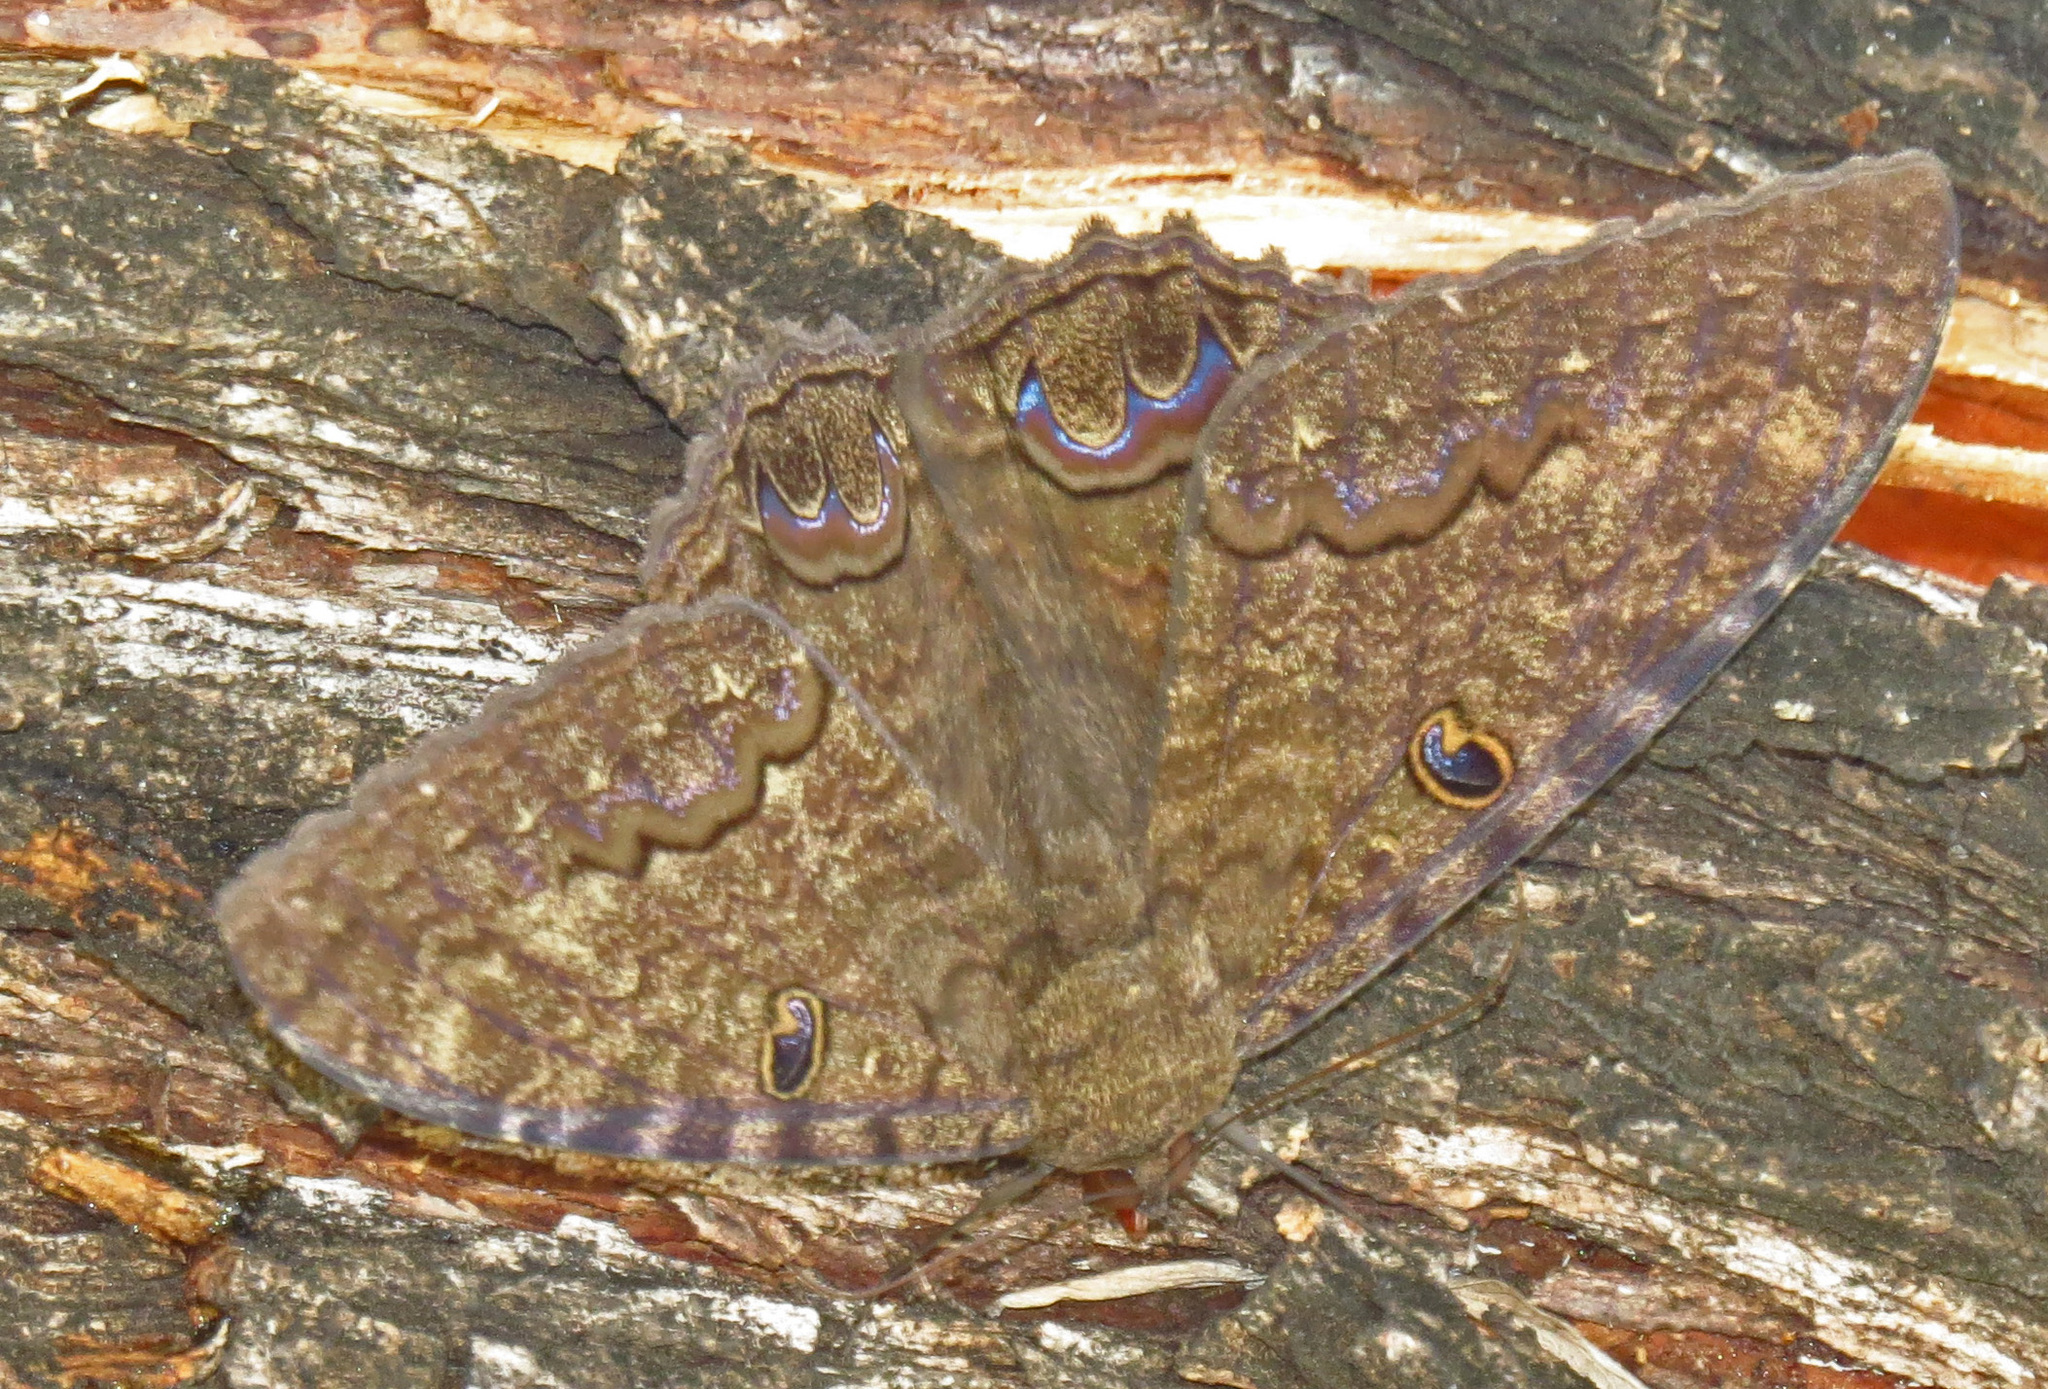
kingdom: Animalia
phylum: Arthropoda
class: Insecta
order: Lepidoptera
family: Erebidae
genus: Ascalapha
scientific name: Ascalapha odorata
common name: Black witch
